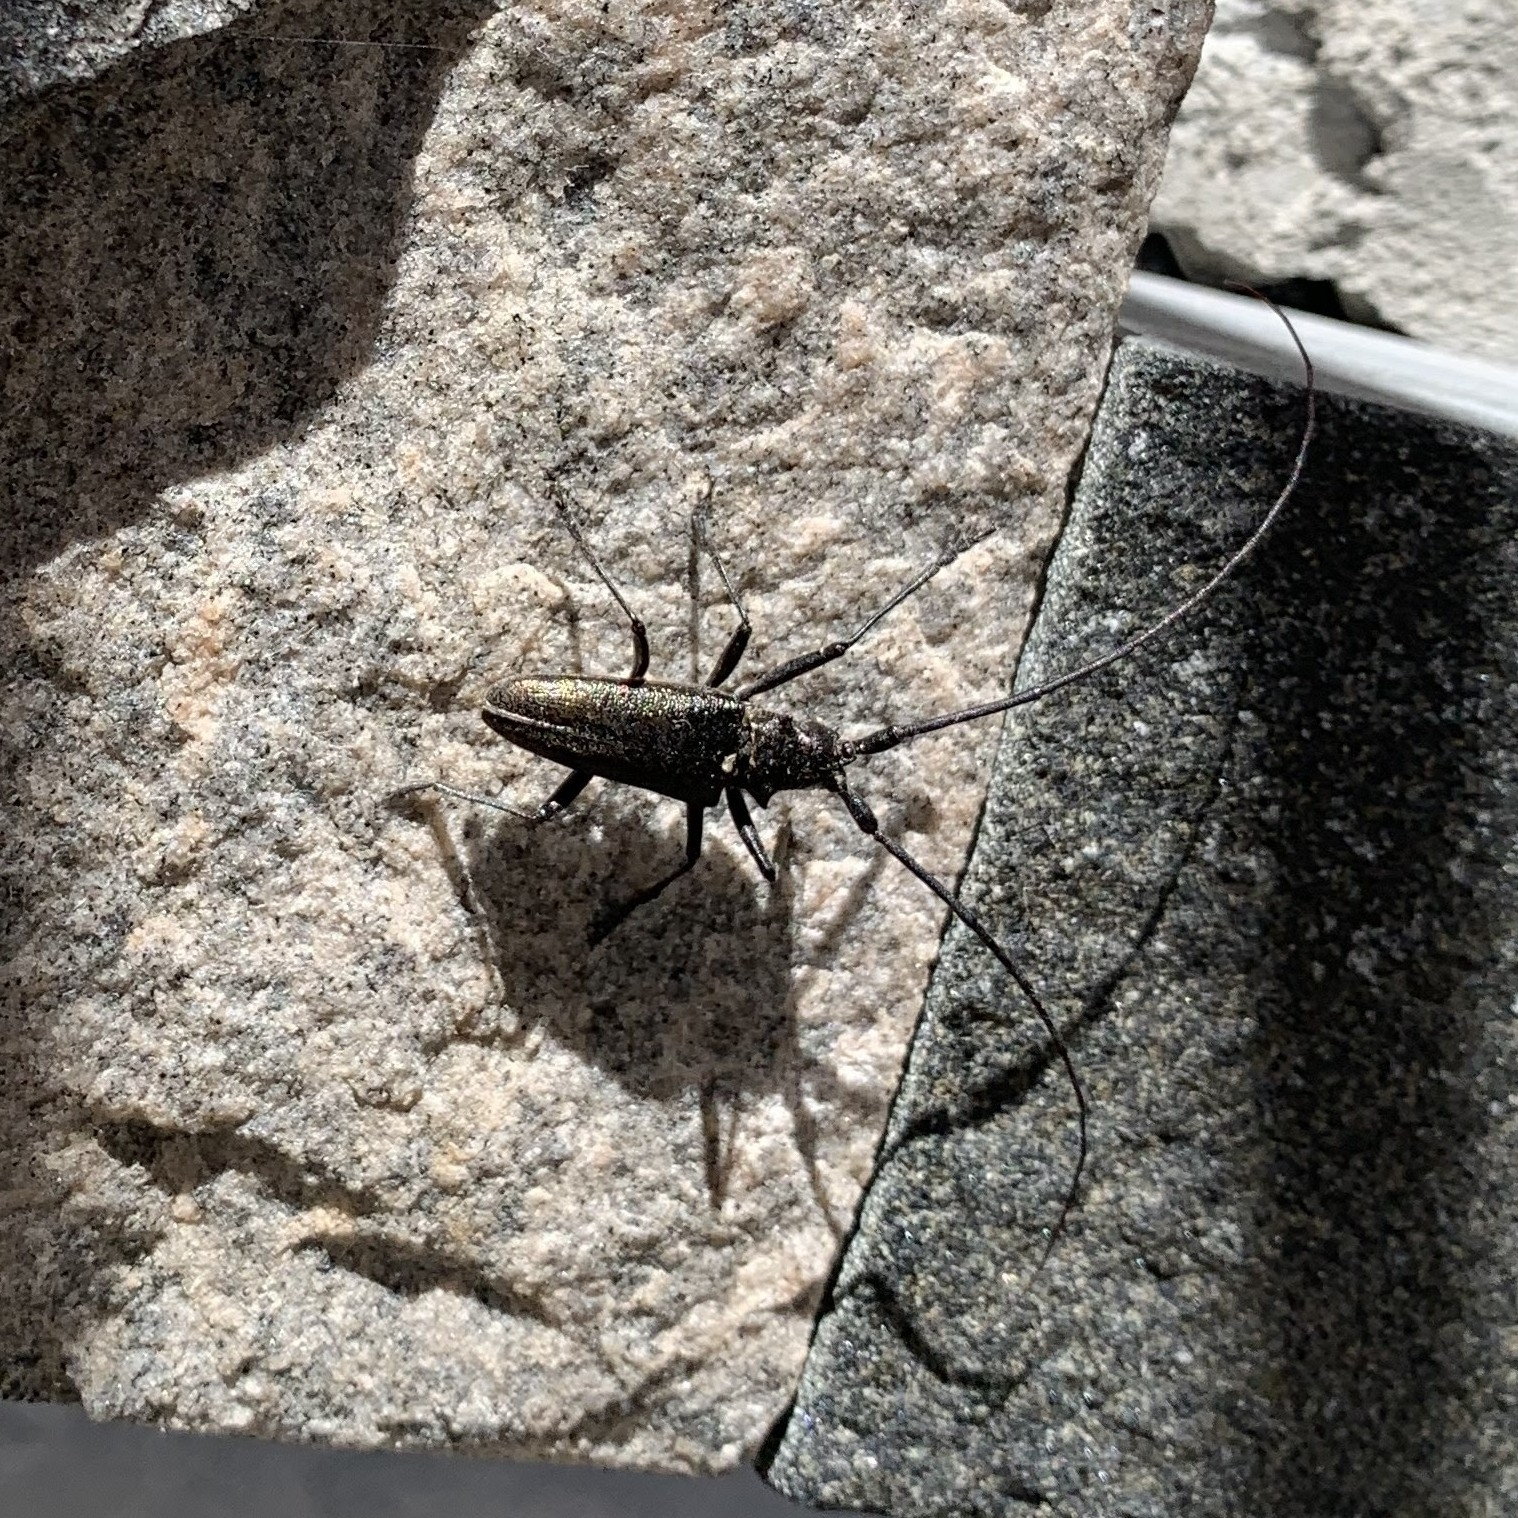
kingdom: Animalia
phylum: Arthropoda
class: Insecta
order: Coleoptera
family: Cerambycidae
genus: Monochamus
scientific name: Monochamus scutellatus
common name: White-spotted sawyer beetle
